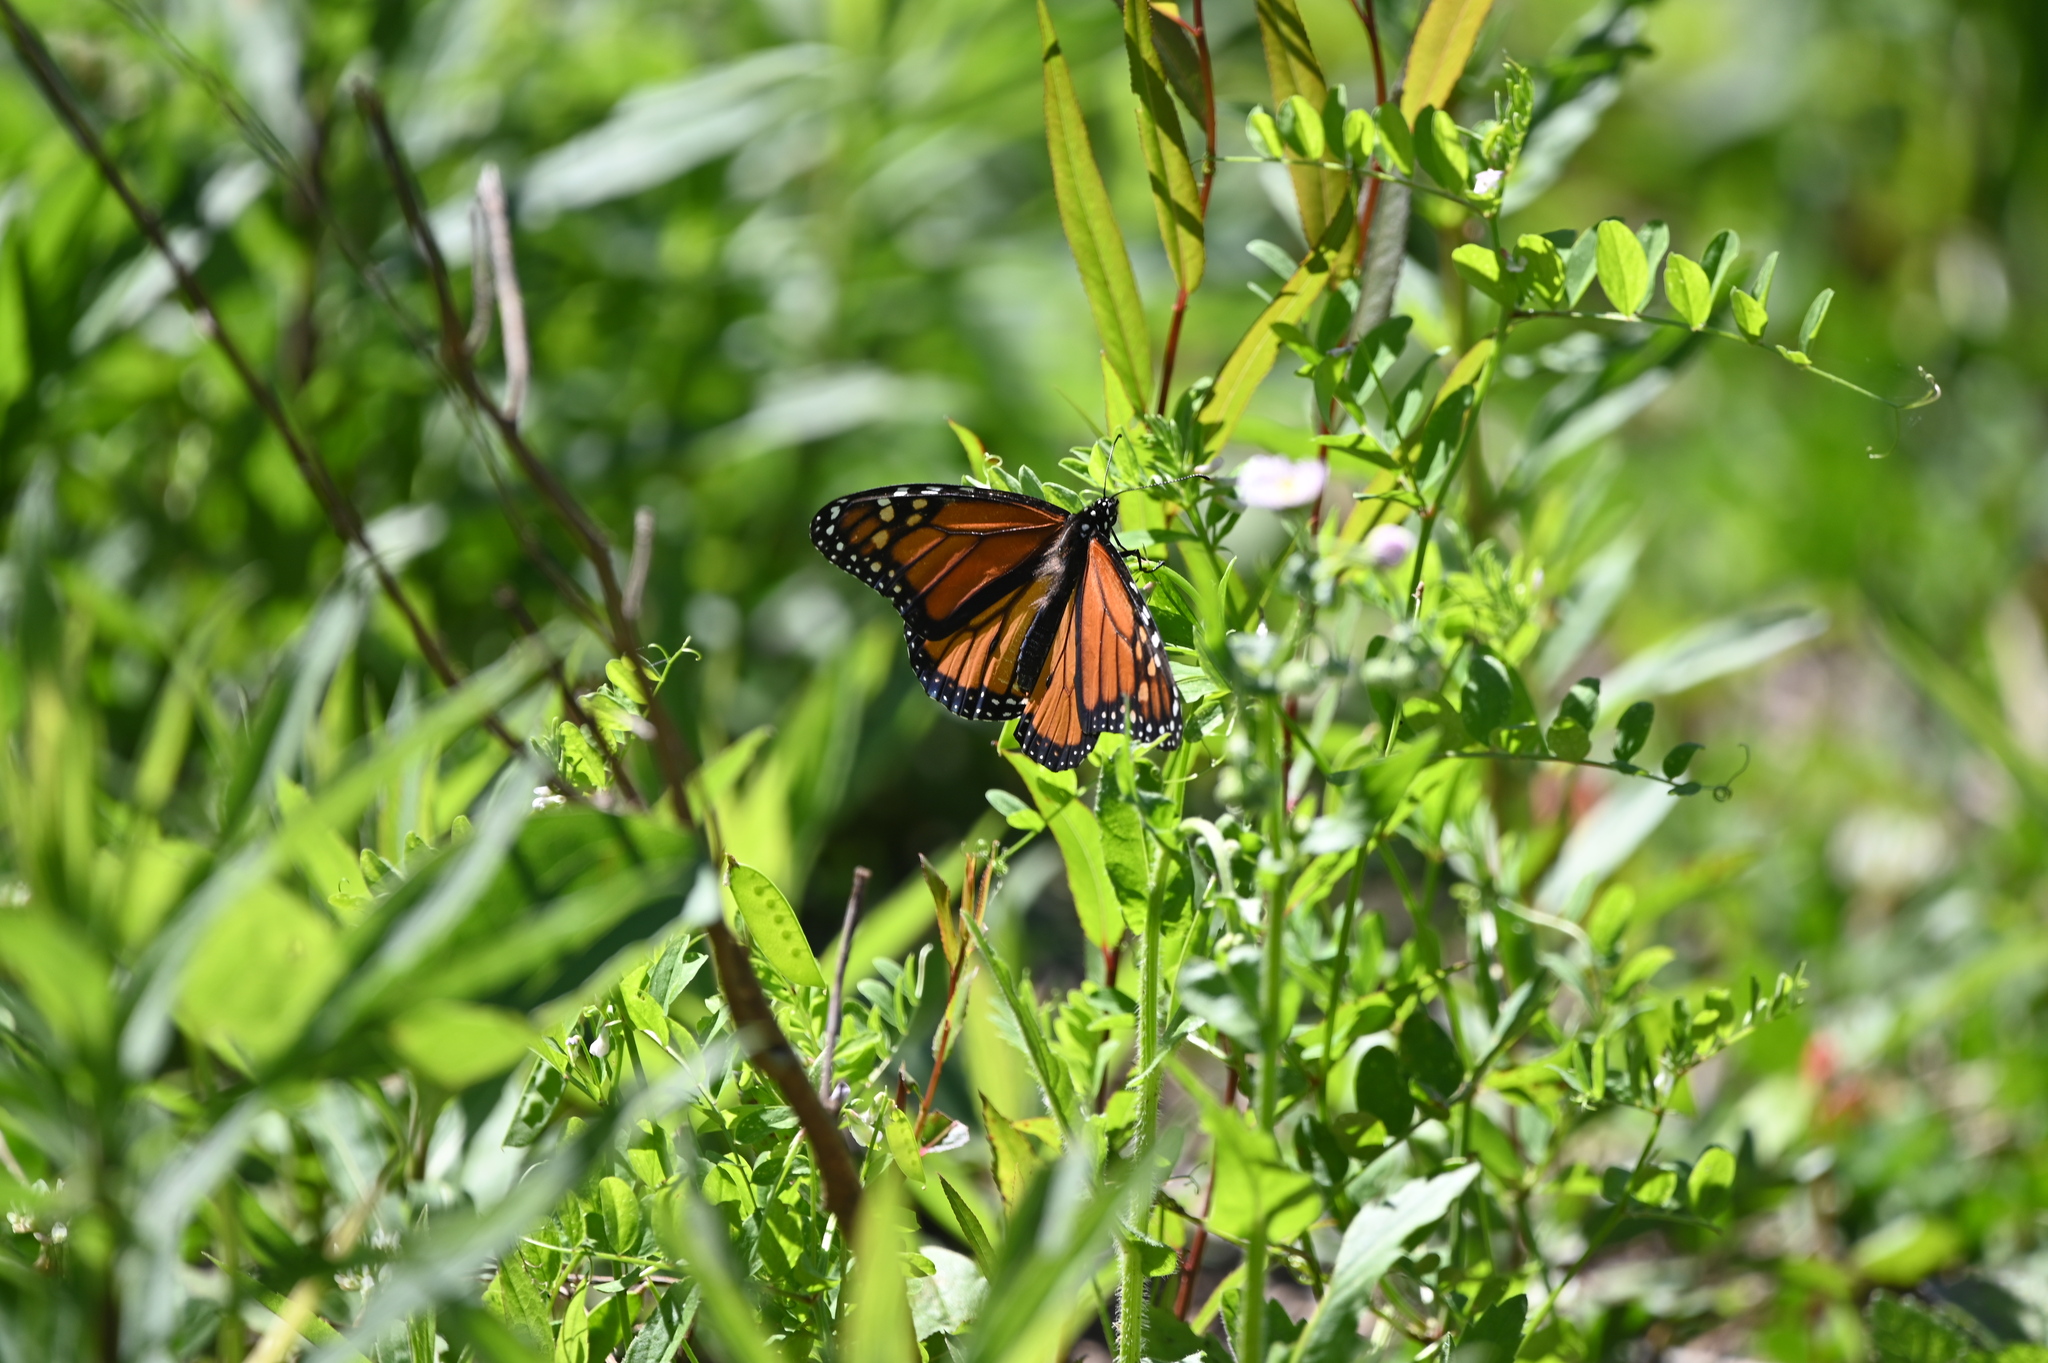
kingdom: Animalia
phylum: Arthropoda
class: Insecta
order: Lepidoptera
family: Nymphalidae
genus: Danaus
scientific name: Danaus plexippus
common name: Monarch
